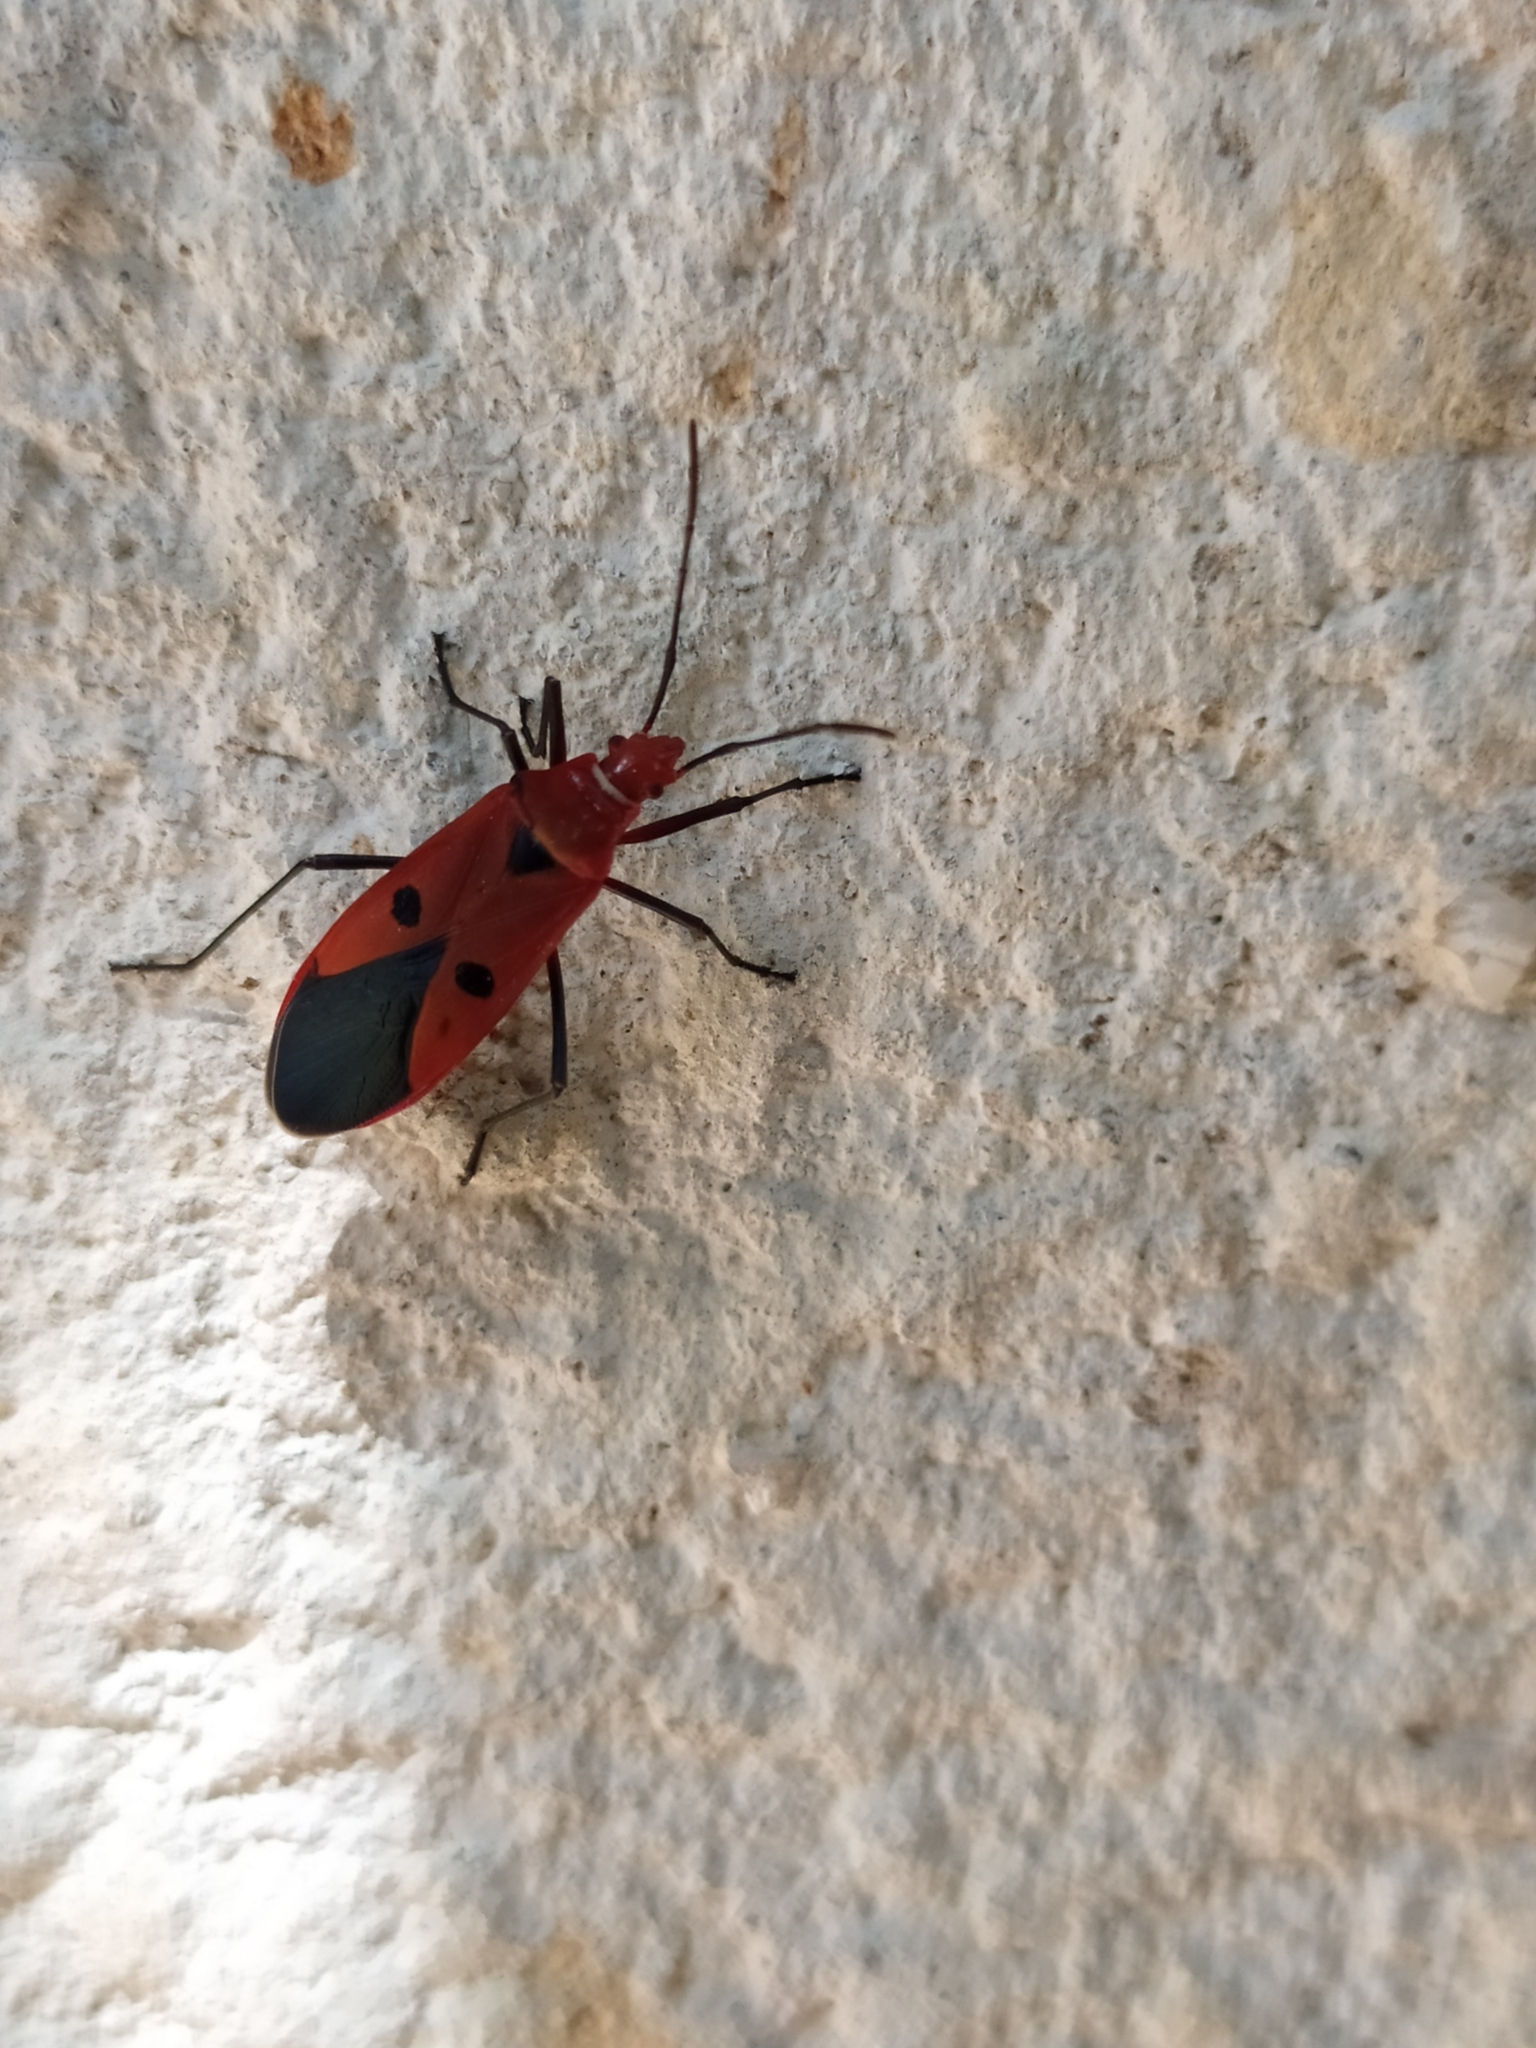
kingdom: Animalia
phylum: Arthropoda
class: Insecta
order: Hemiptera
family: Pyrrhocoridae
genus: Dysdercus
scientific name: Dysdercus cingulatus
